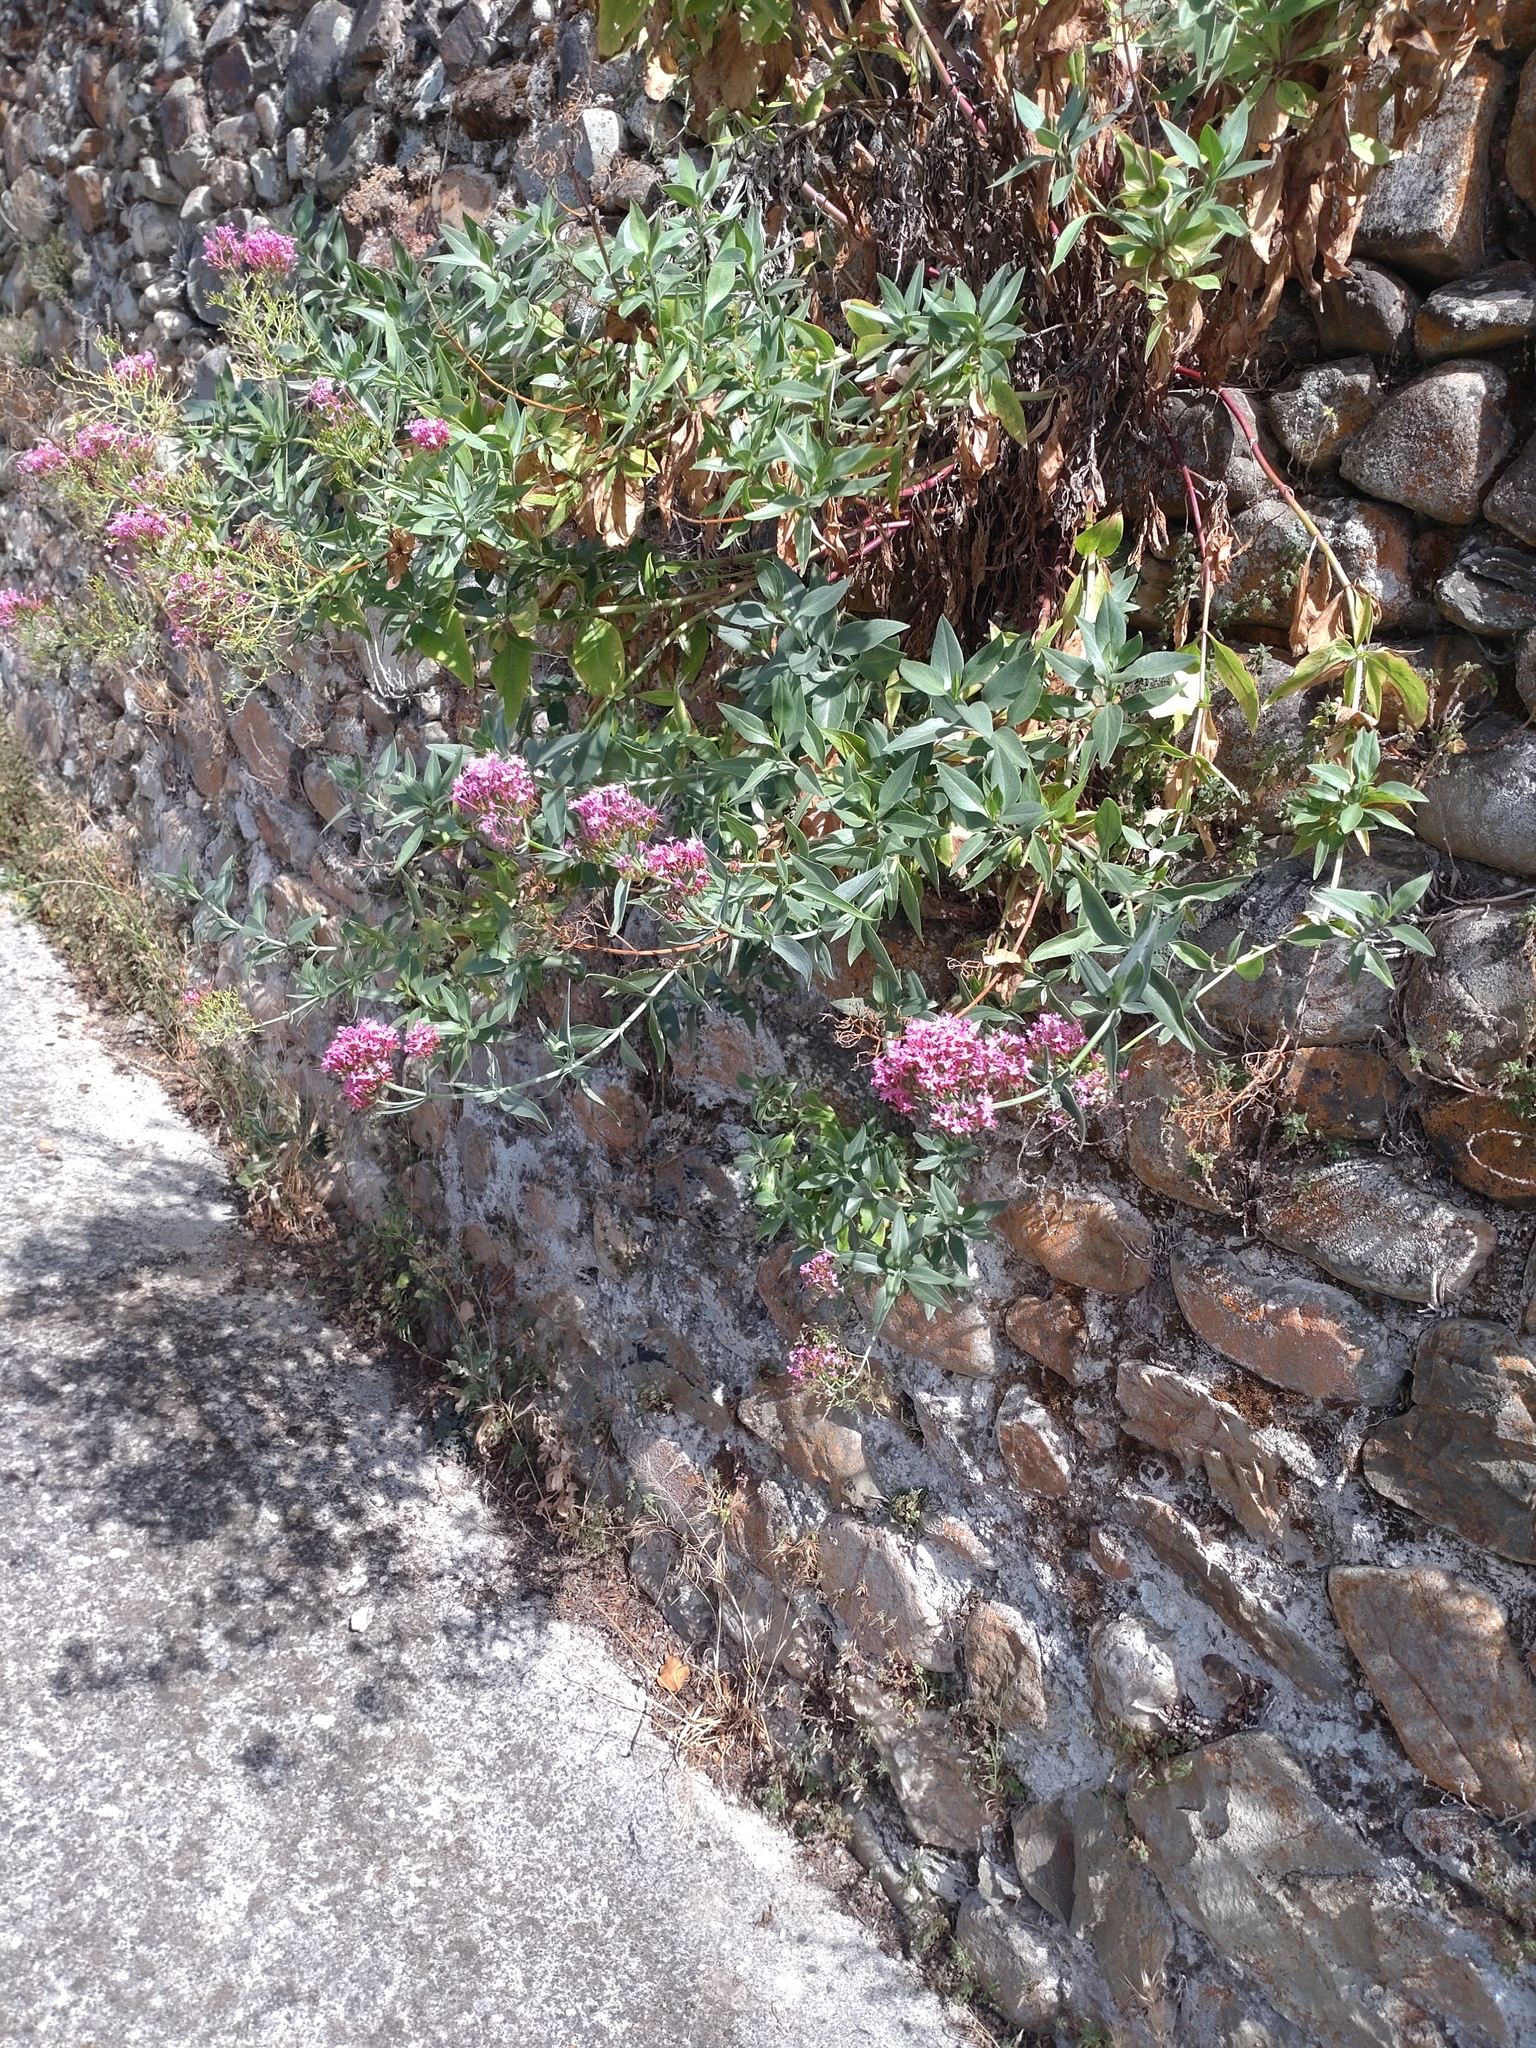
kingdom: Plantae
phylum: Tracheophyta
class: Magnoliopsida
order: Dipsacales
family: Caprifoliaceae
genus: Centranthus
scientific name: Centranthus ruber
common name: Red valerian
